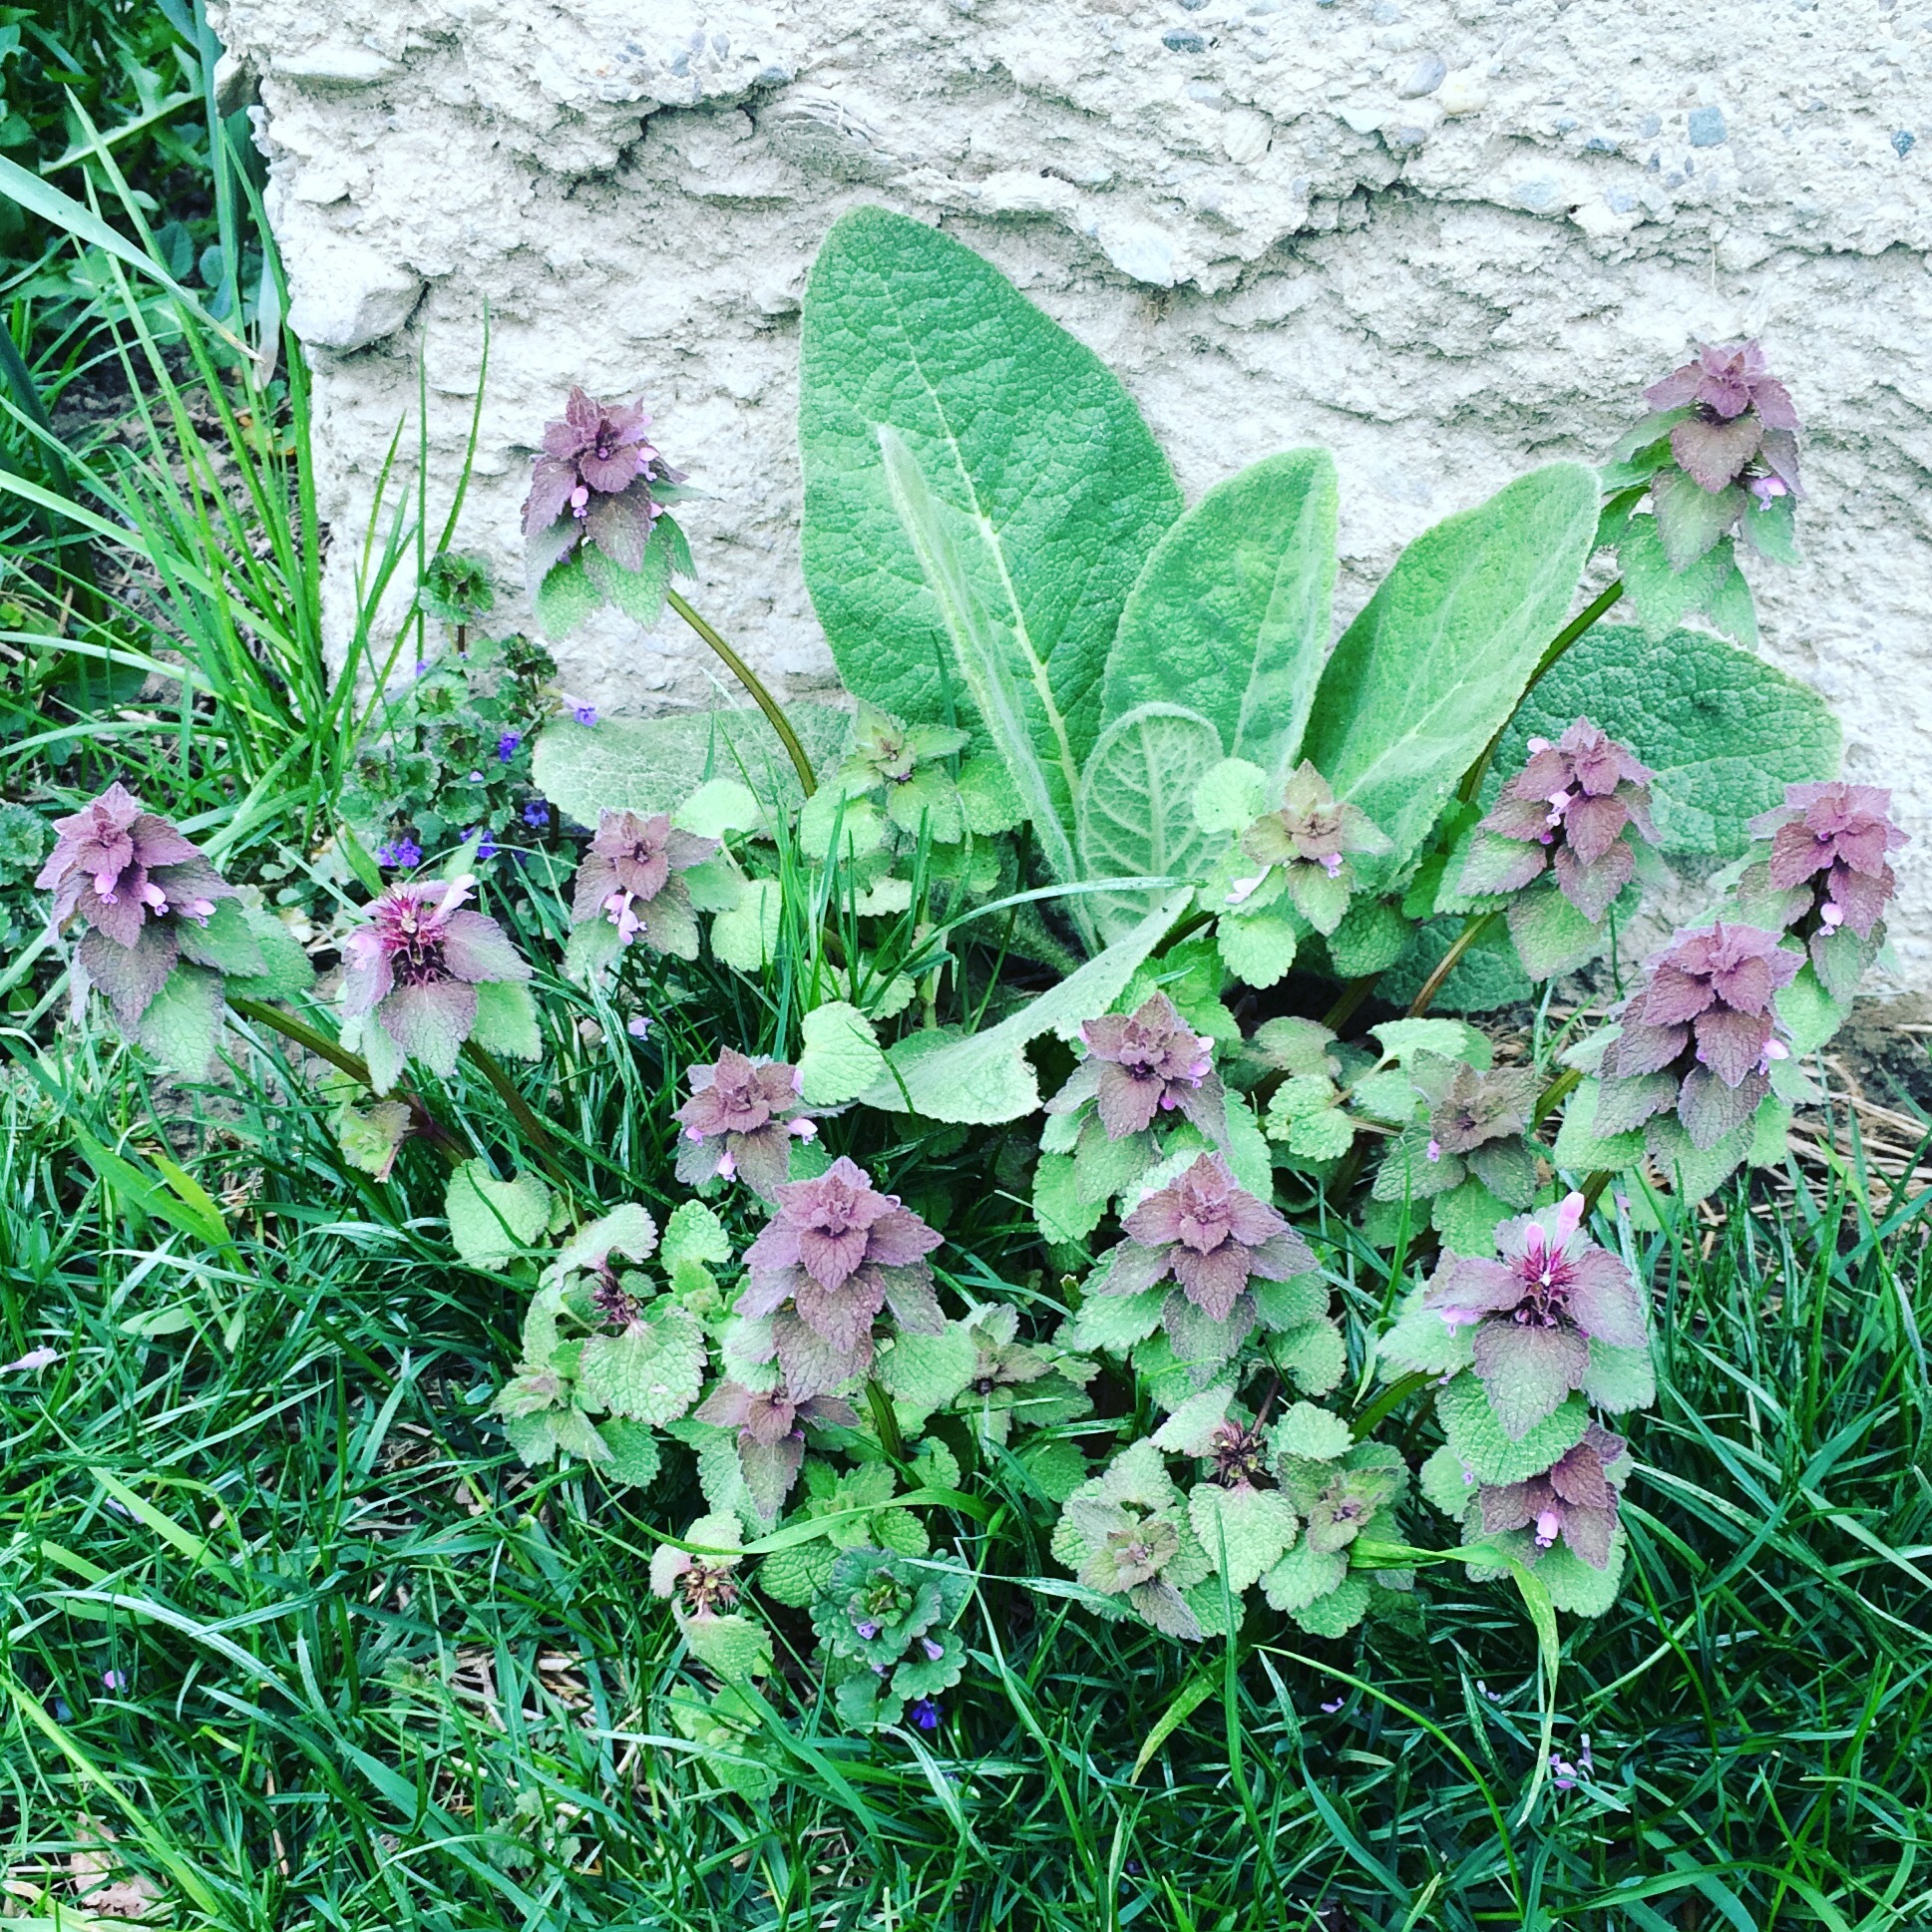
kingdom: Plantae
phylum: Tracheophyta
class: Magnoliopsida
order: Lamiales
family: Lamiaceae
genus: Lamium
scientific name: Lamium purpureum
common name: Red dead-nettle
